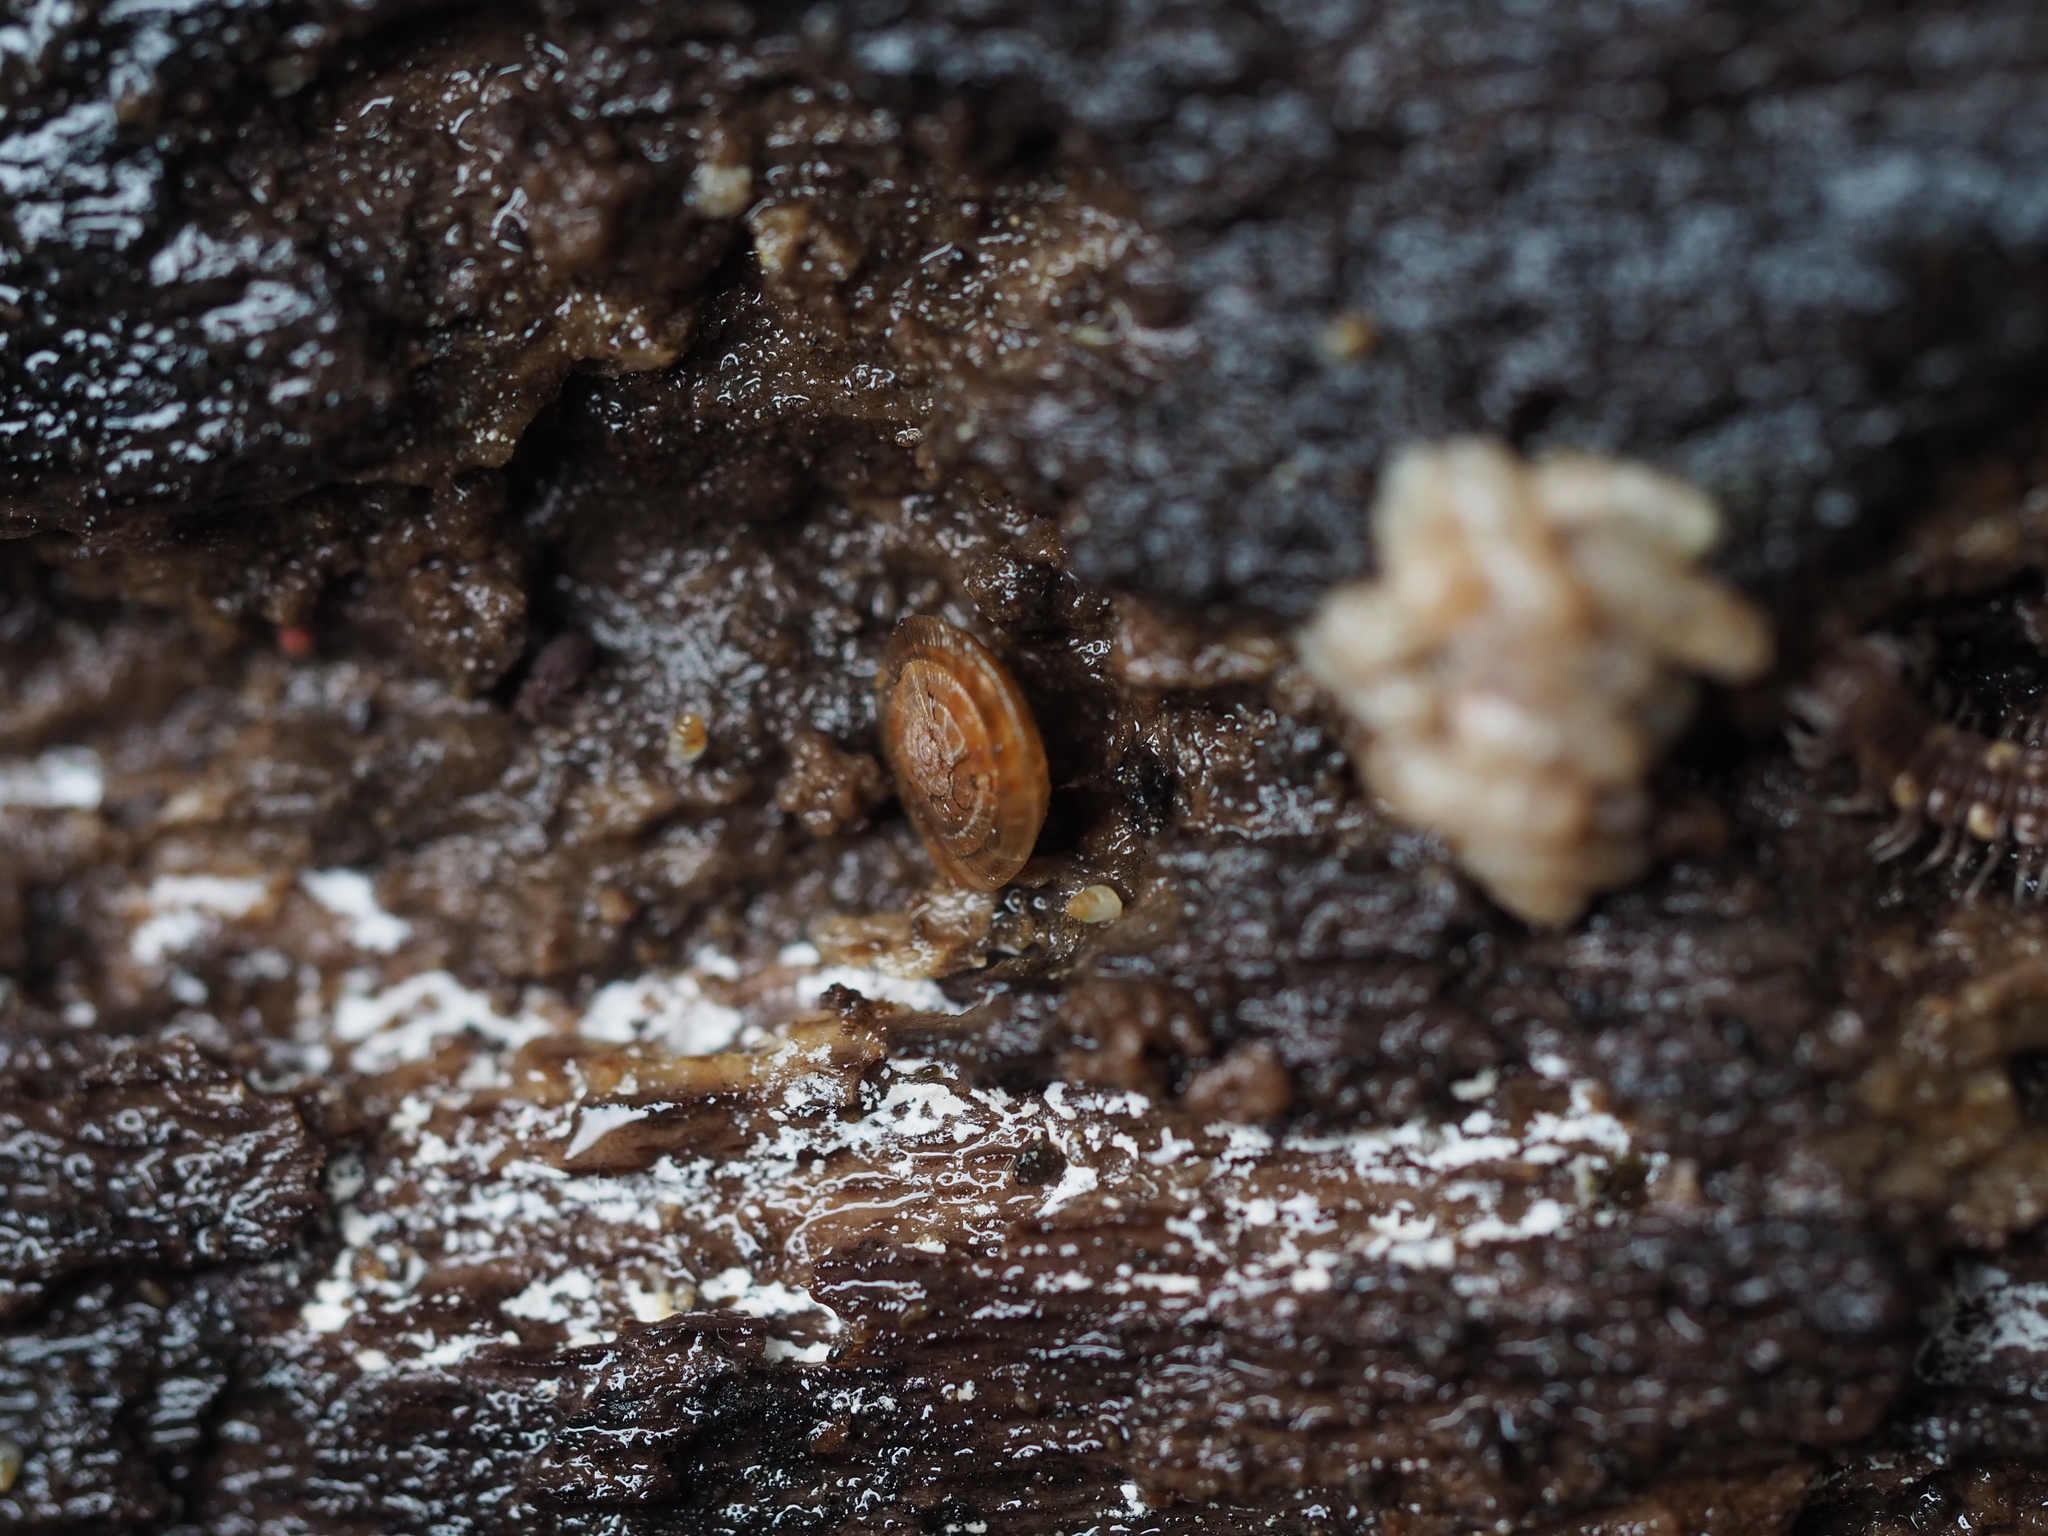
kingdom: Animalia
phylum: Mollusca
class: Gastropoda
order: Stylommatophora
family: Discidae
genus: Discus
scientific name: Discus
